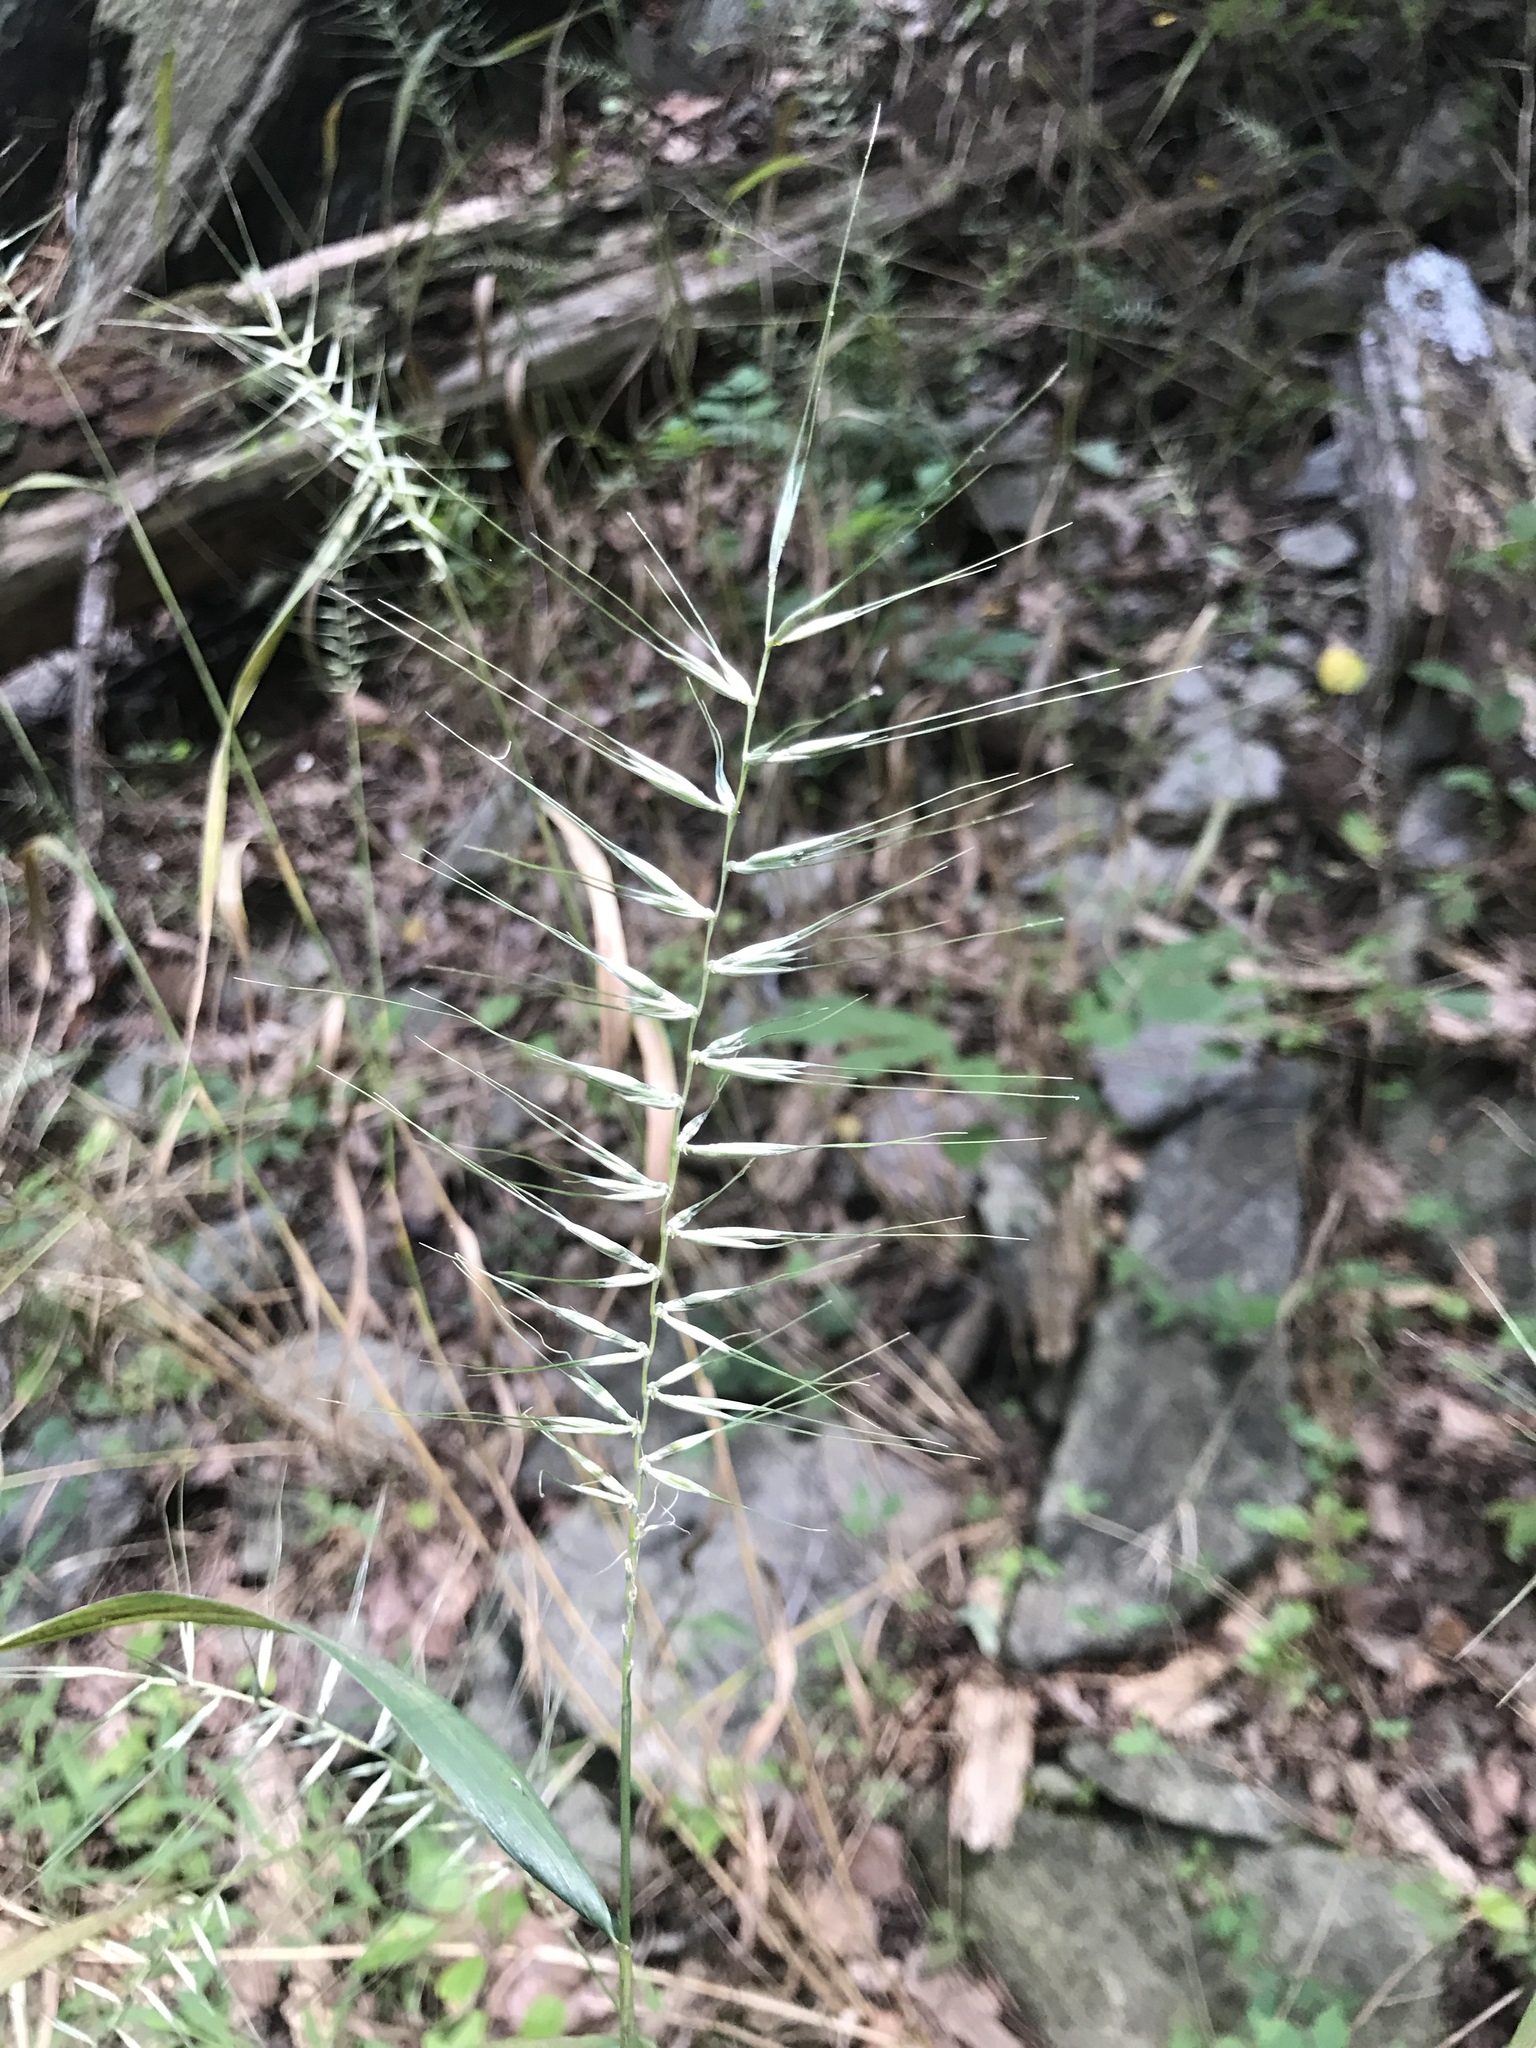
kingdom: Plantae
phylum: Tracheophyta
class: Liliopsida
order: Poales
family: Poaceae
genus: Elymus
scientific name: Elymus hystrix
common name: Bottlebrush grass
